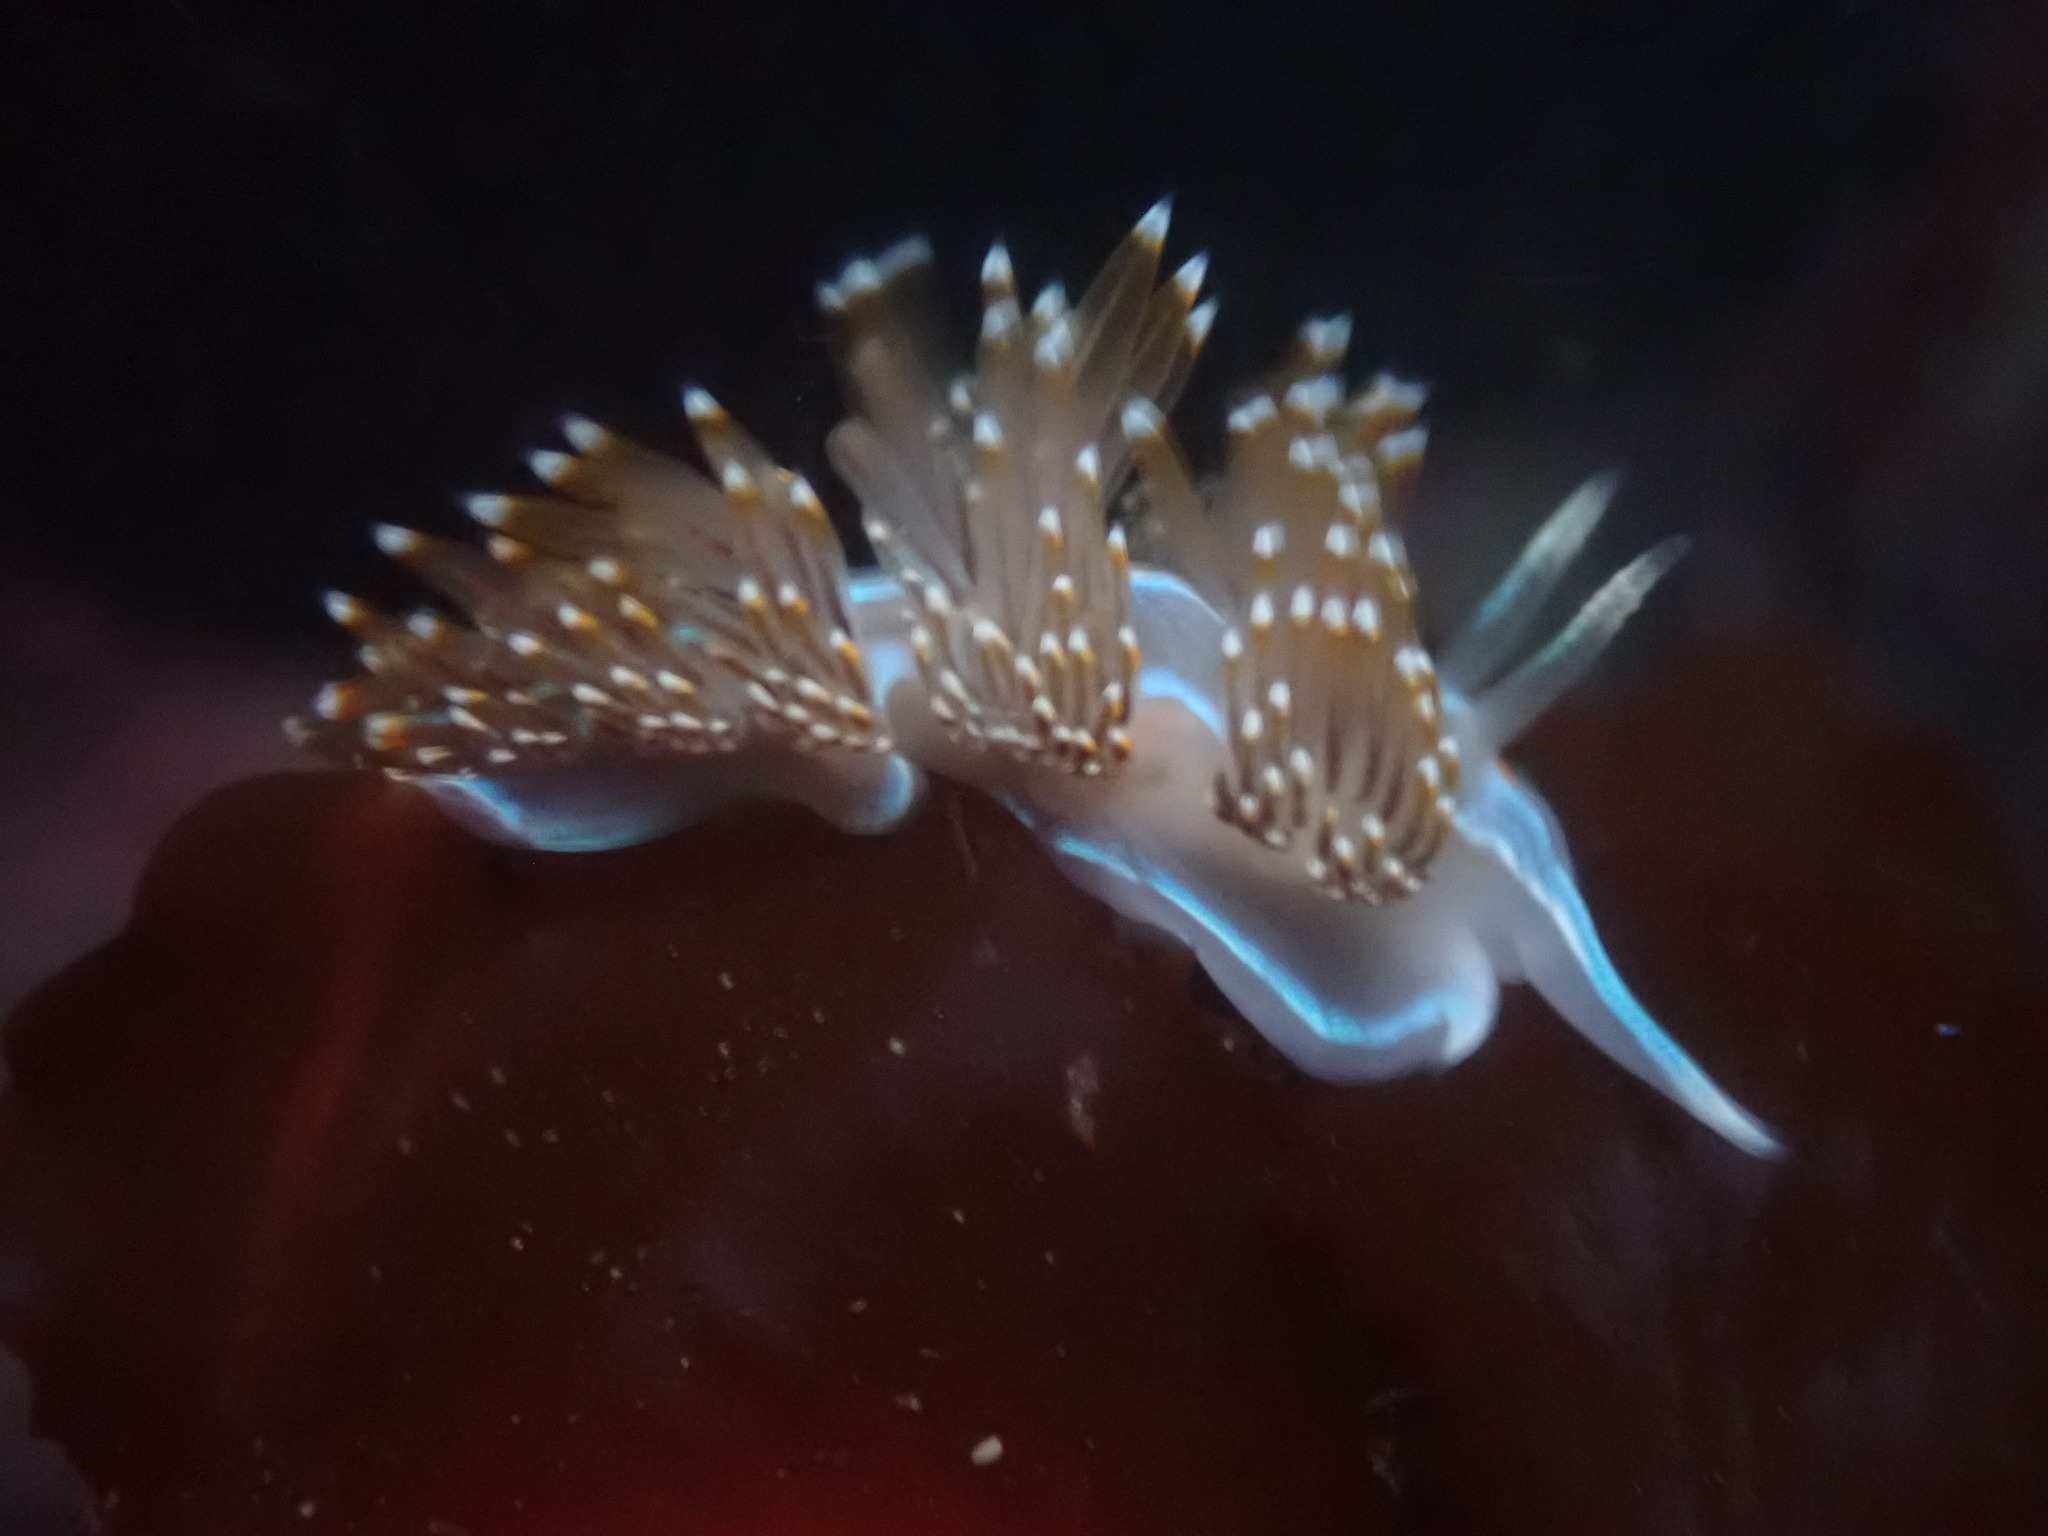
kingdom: Animalia
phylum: Mollusca
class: Gastropoda
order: Nudibranchia
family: Myrrhinidae
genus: Hermissenda
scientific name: Hermissenda opalescens
